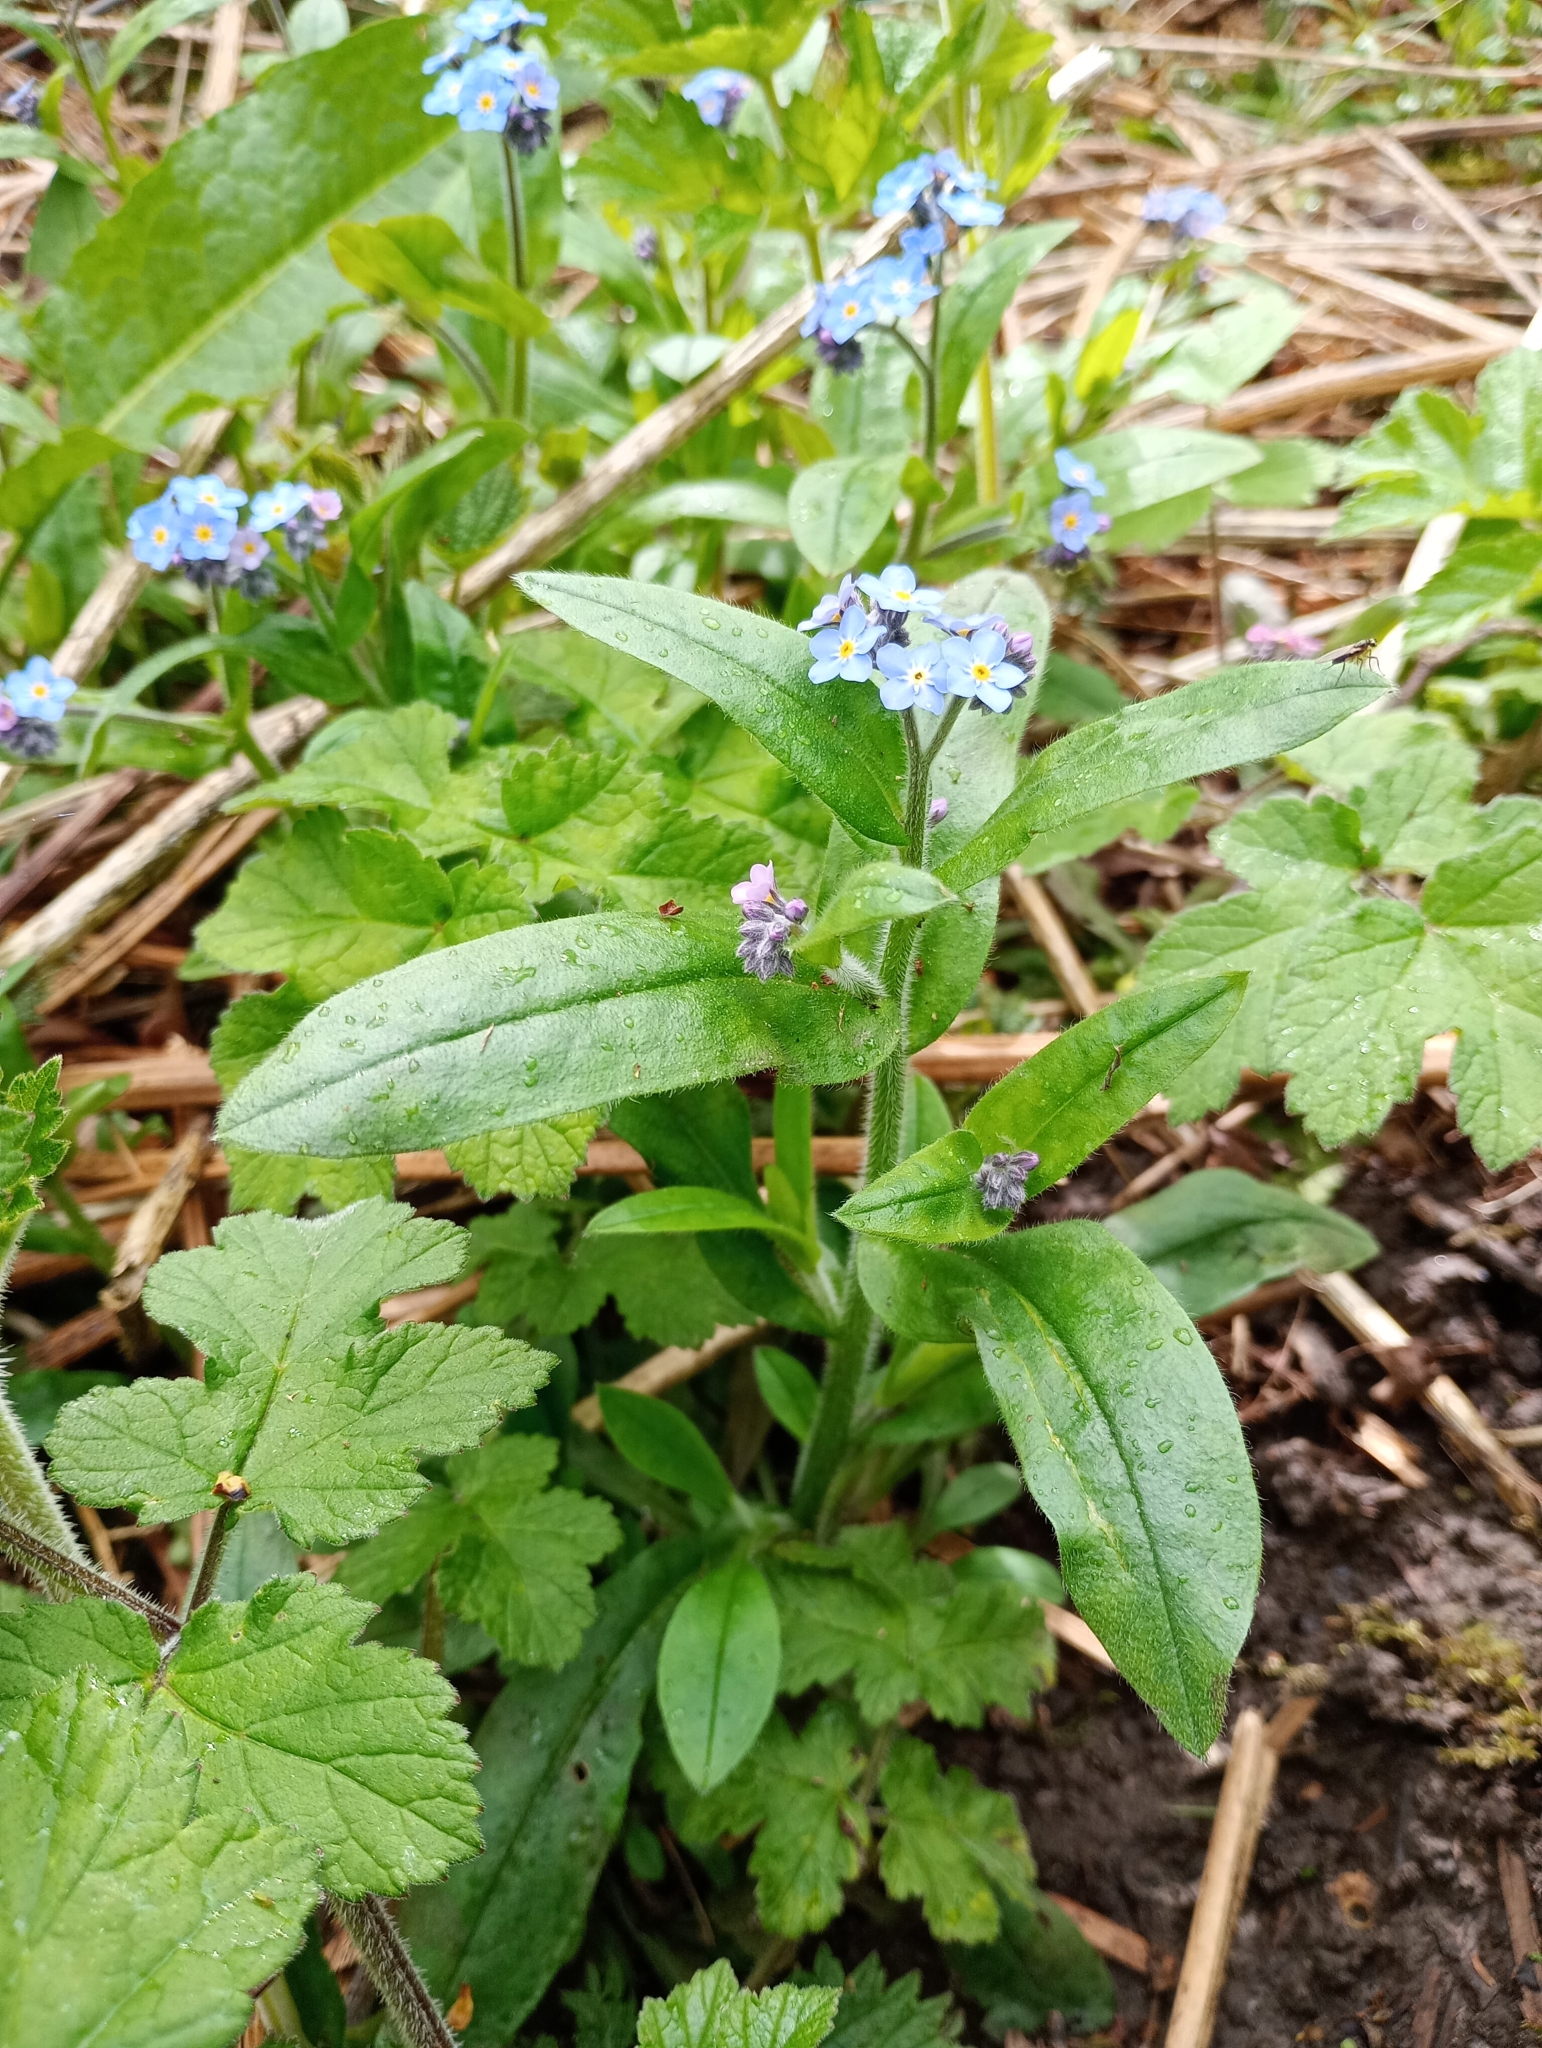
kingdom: Plantae
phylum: Tracheophyta
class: Magnoliopsida
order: Boraginales
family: Boraginaceae
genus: Myosotis
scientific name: Myosotis sylvatica
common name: Wood forget-me-not
